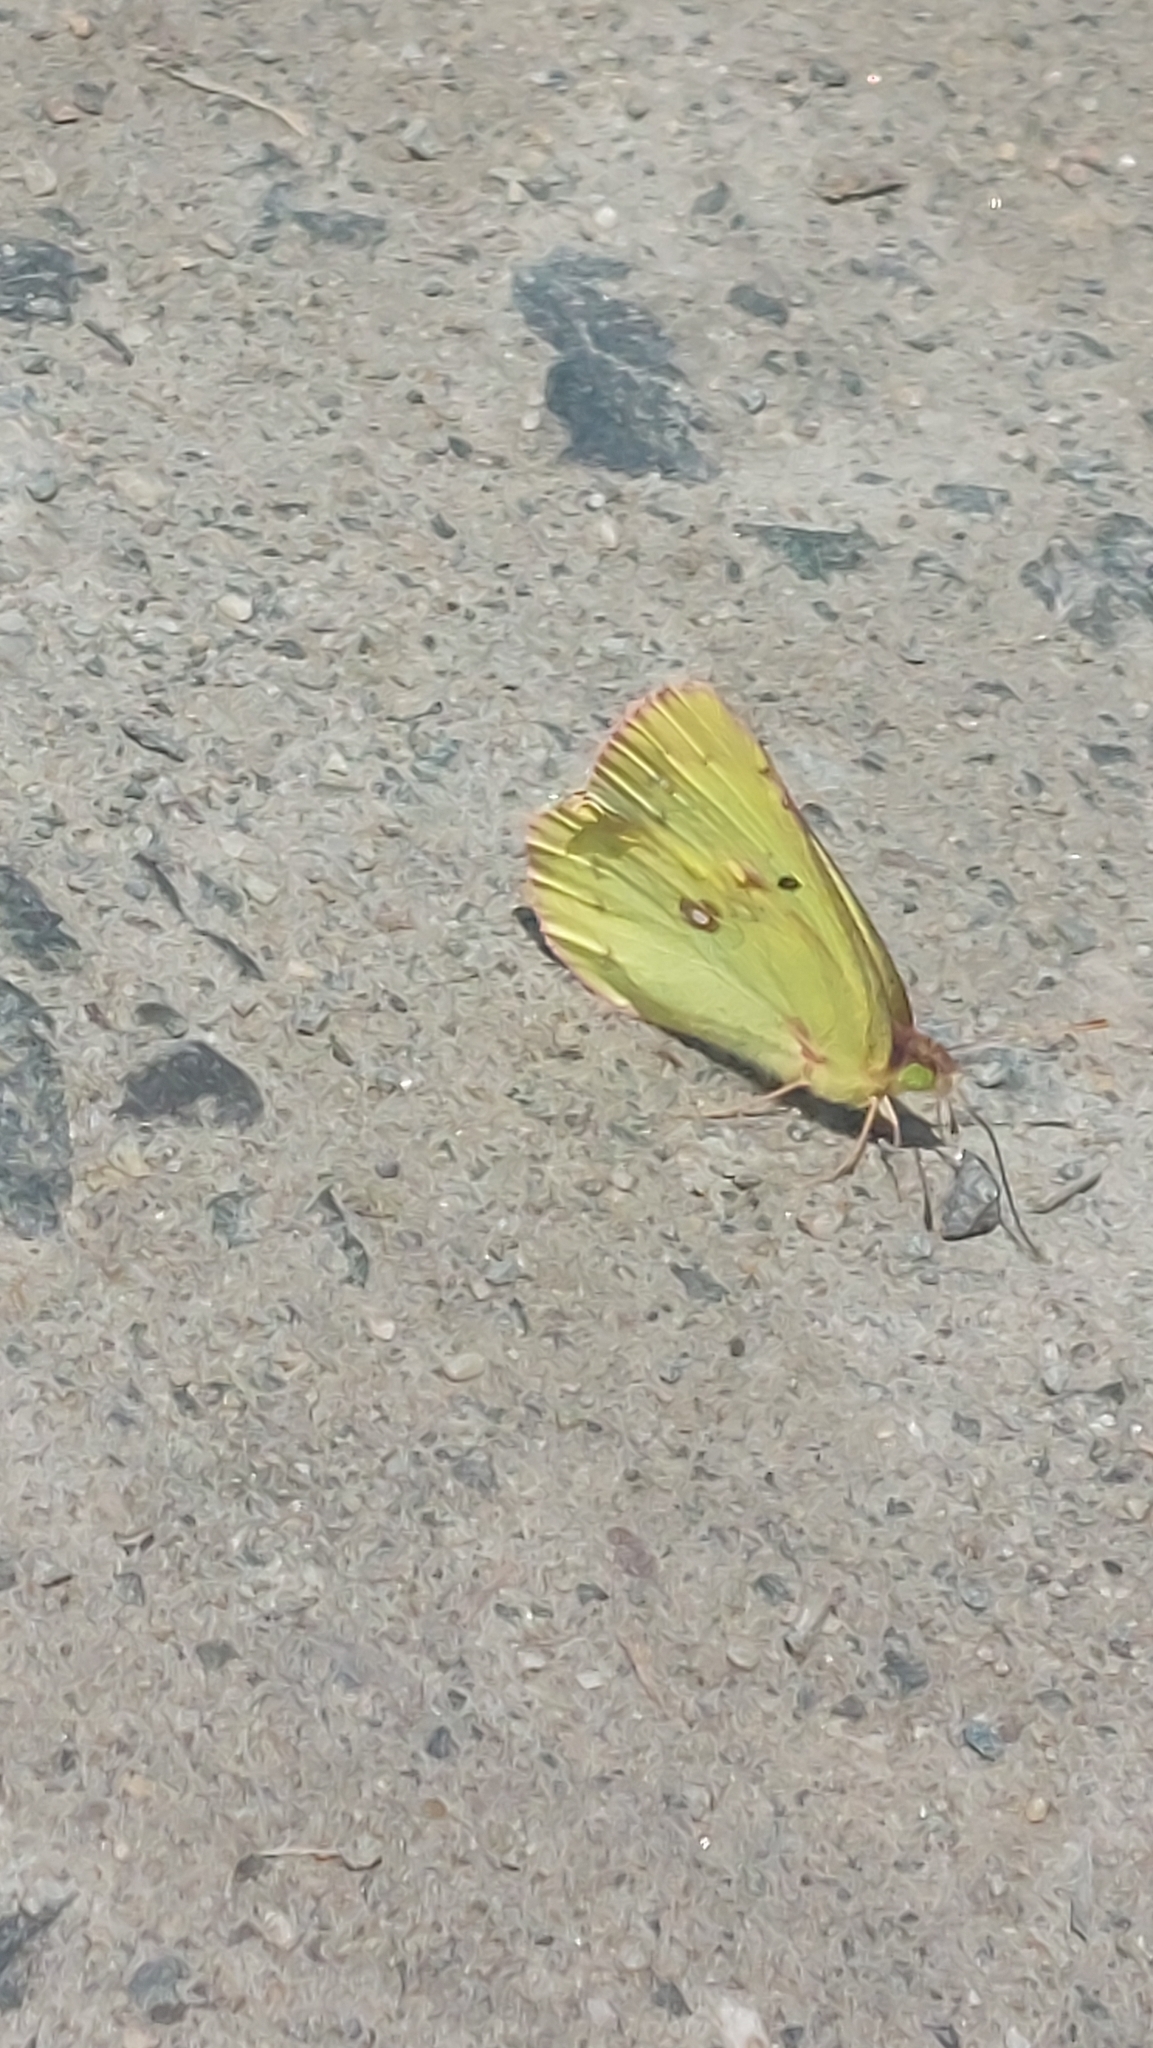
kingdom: Animalia
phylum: Arthropoda
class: Insecta
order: Lepidoptera
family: Pieridae
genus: Colias
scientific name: Colias philodice
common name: Clouded sulphur
